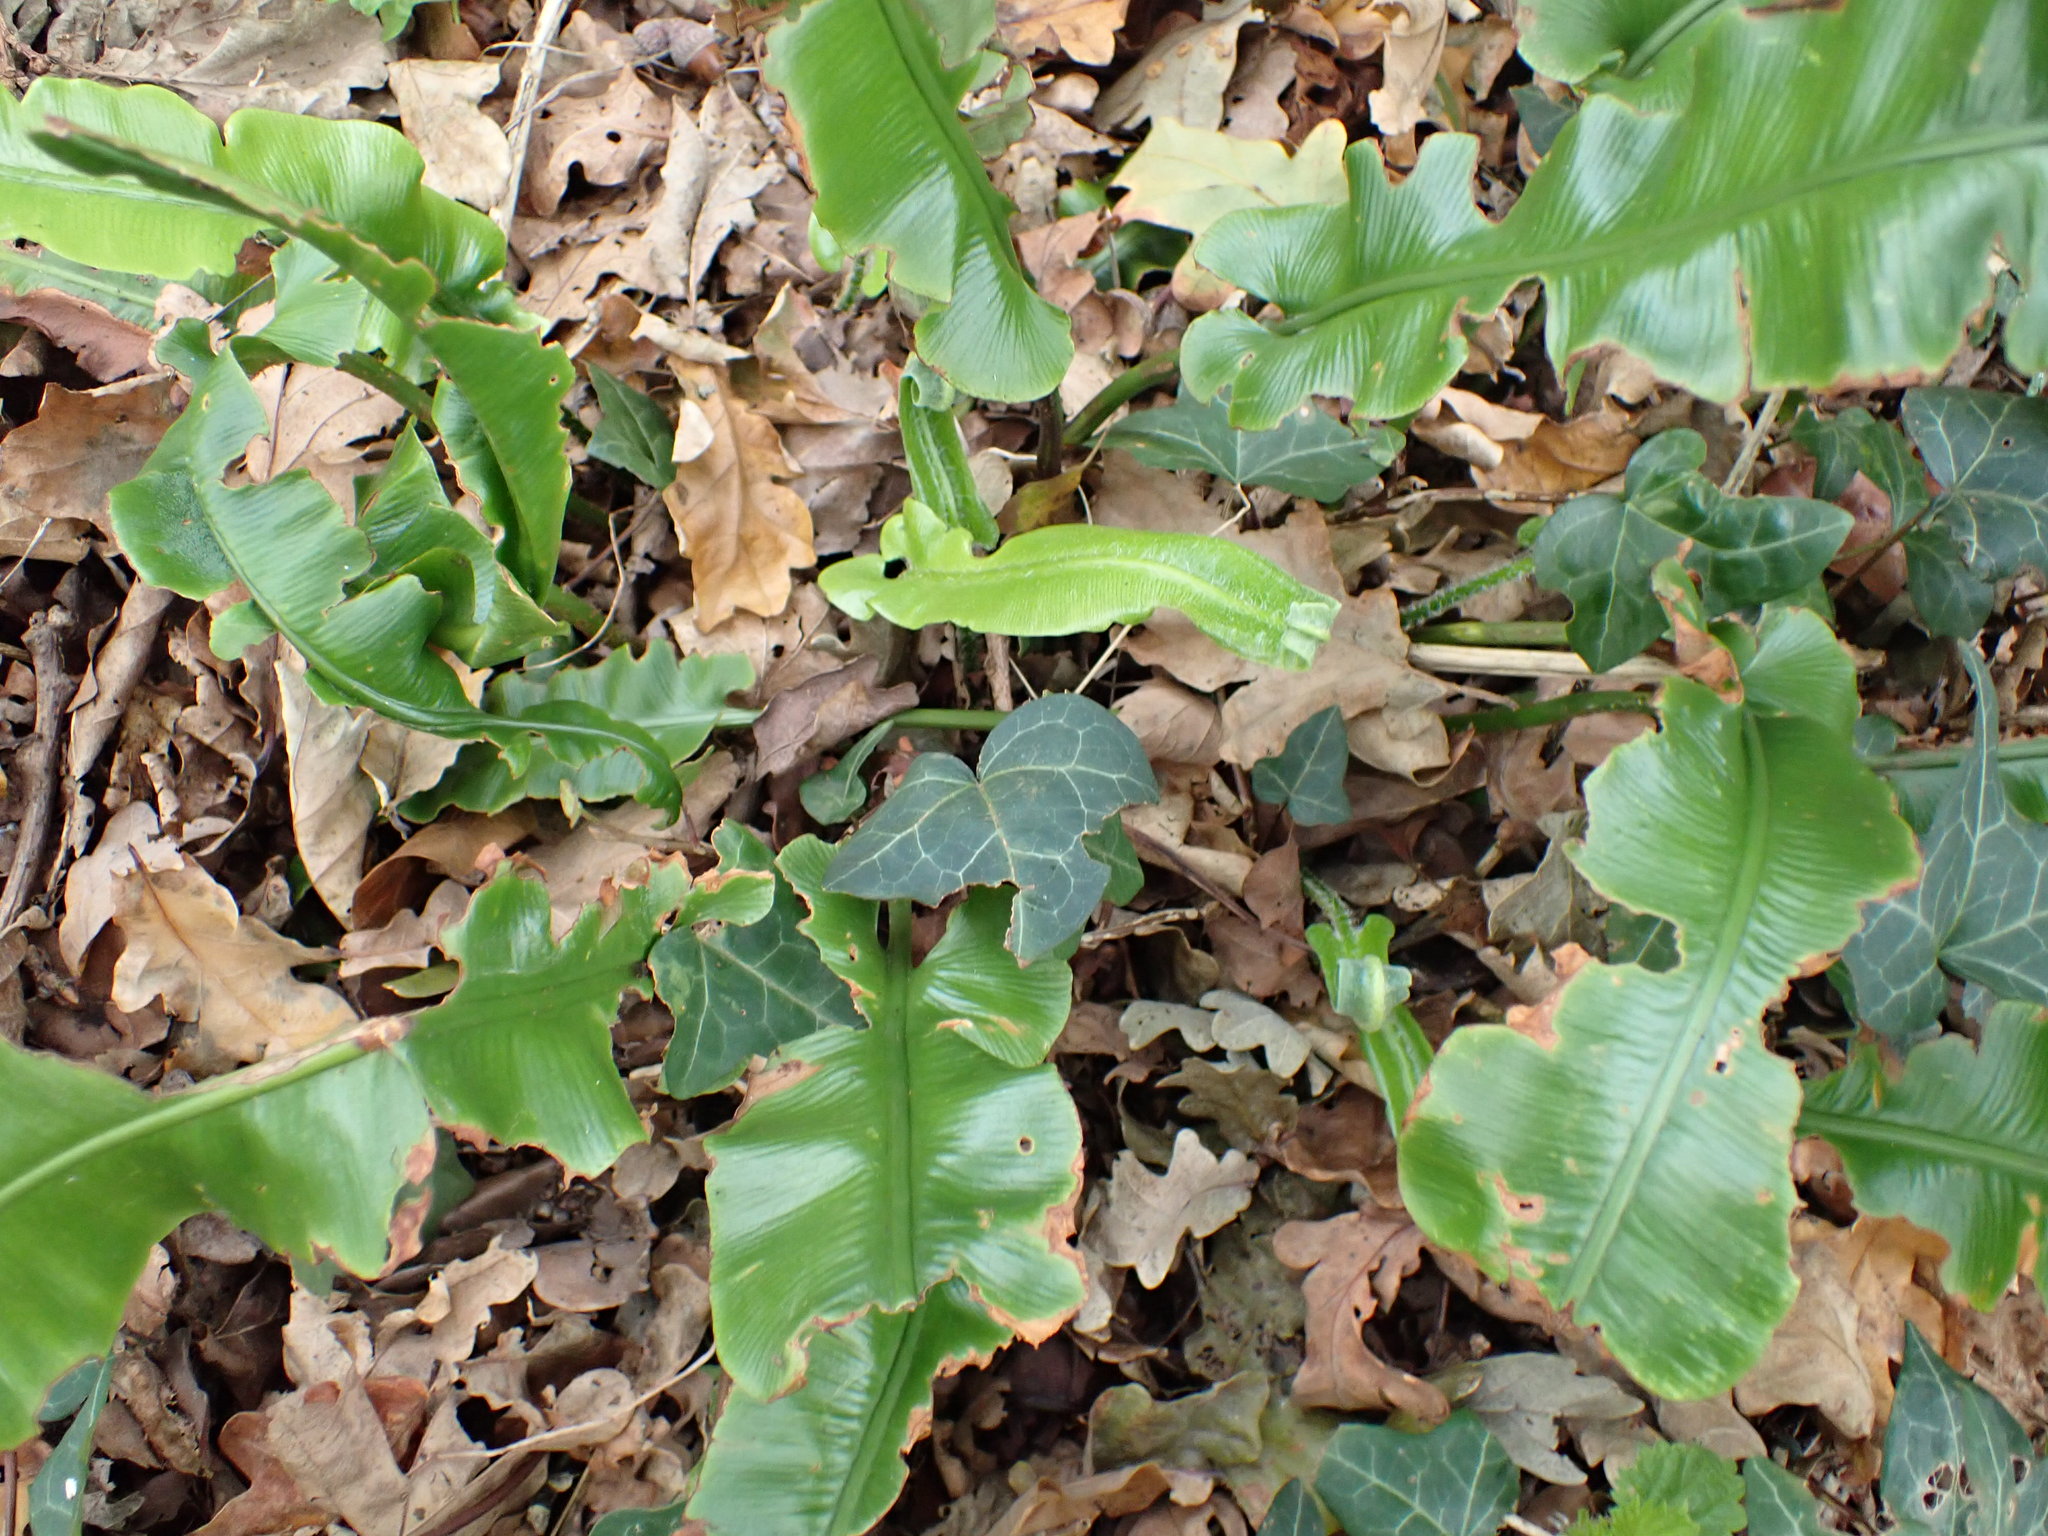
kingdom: Plantae
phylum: Tracheophyta
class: Polypodiopsida
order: Polypodiales
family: Aspleniaceae
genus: Asplenium
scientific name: Asplenium scolopendrium
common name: Hart's-tongue fern
